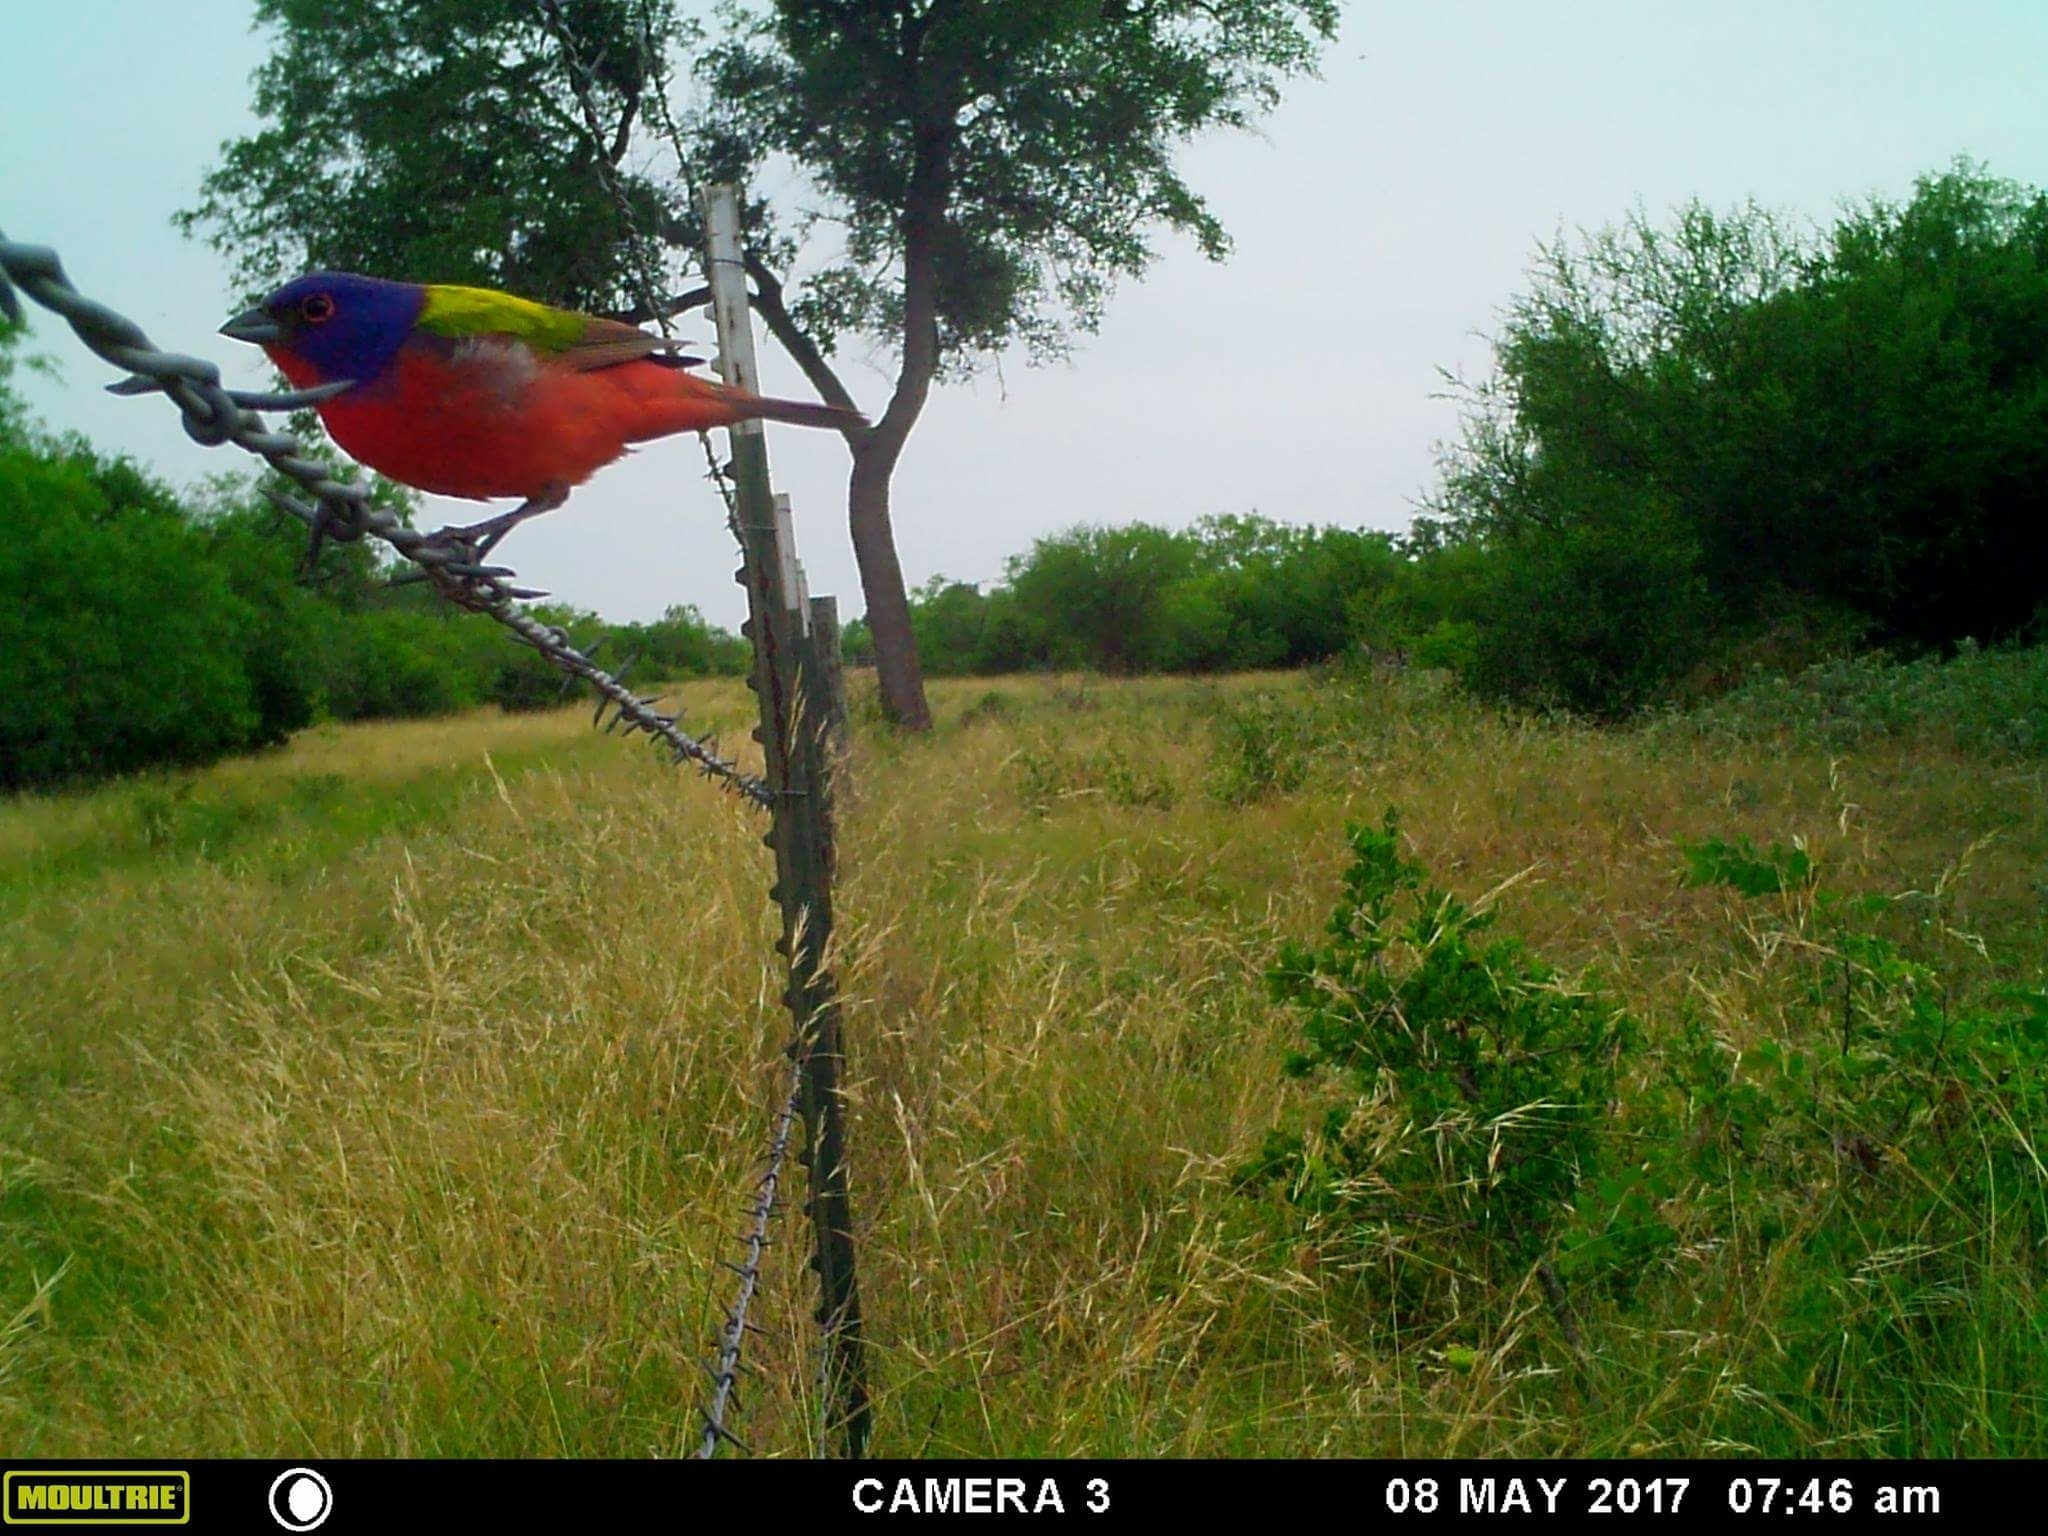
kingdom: Animalia
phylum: Chordata
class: Aves
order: Passeriformes
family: Cardinalidae
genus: Passerina
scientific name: Passerina ciris
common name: Painted bunting
